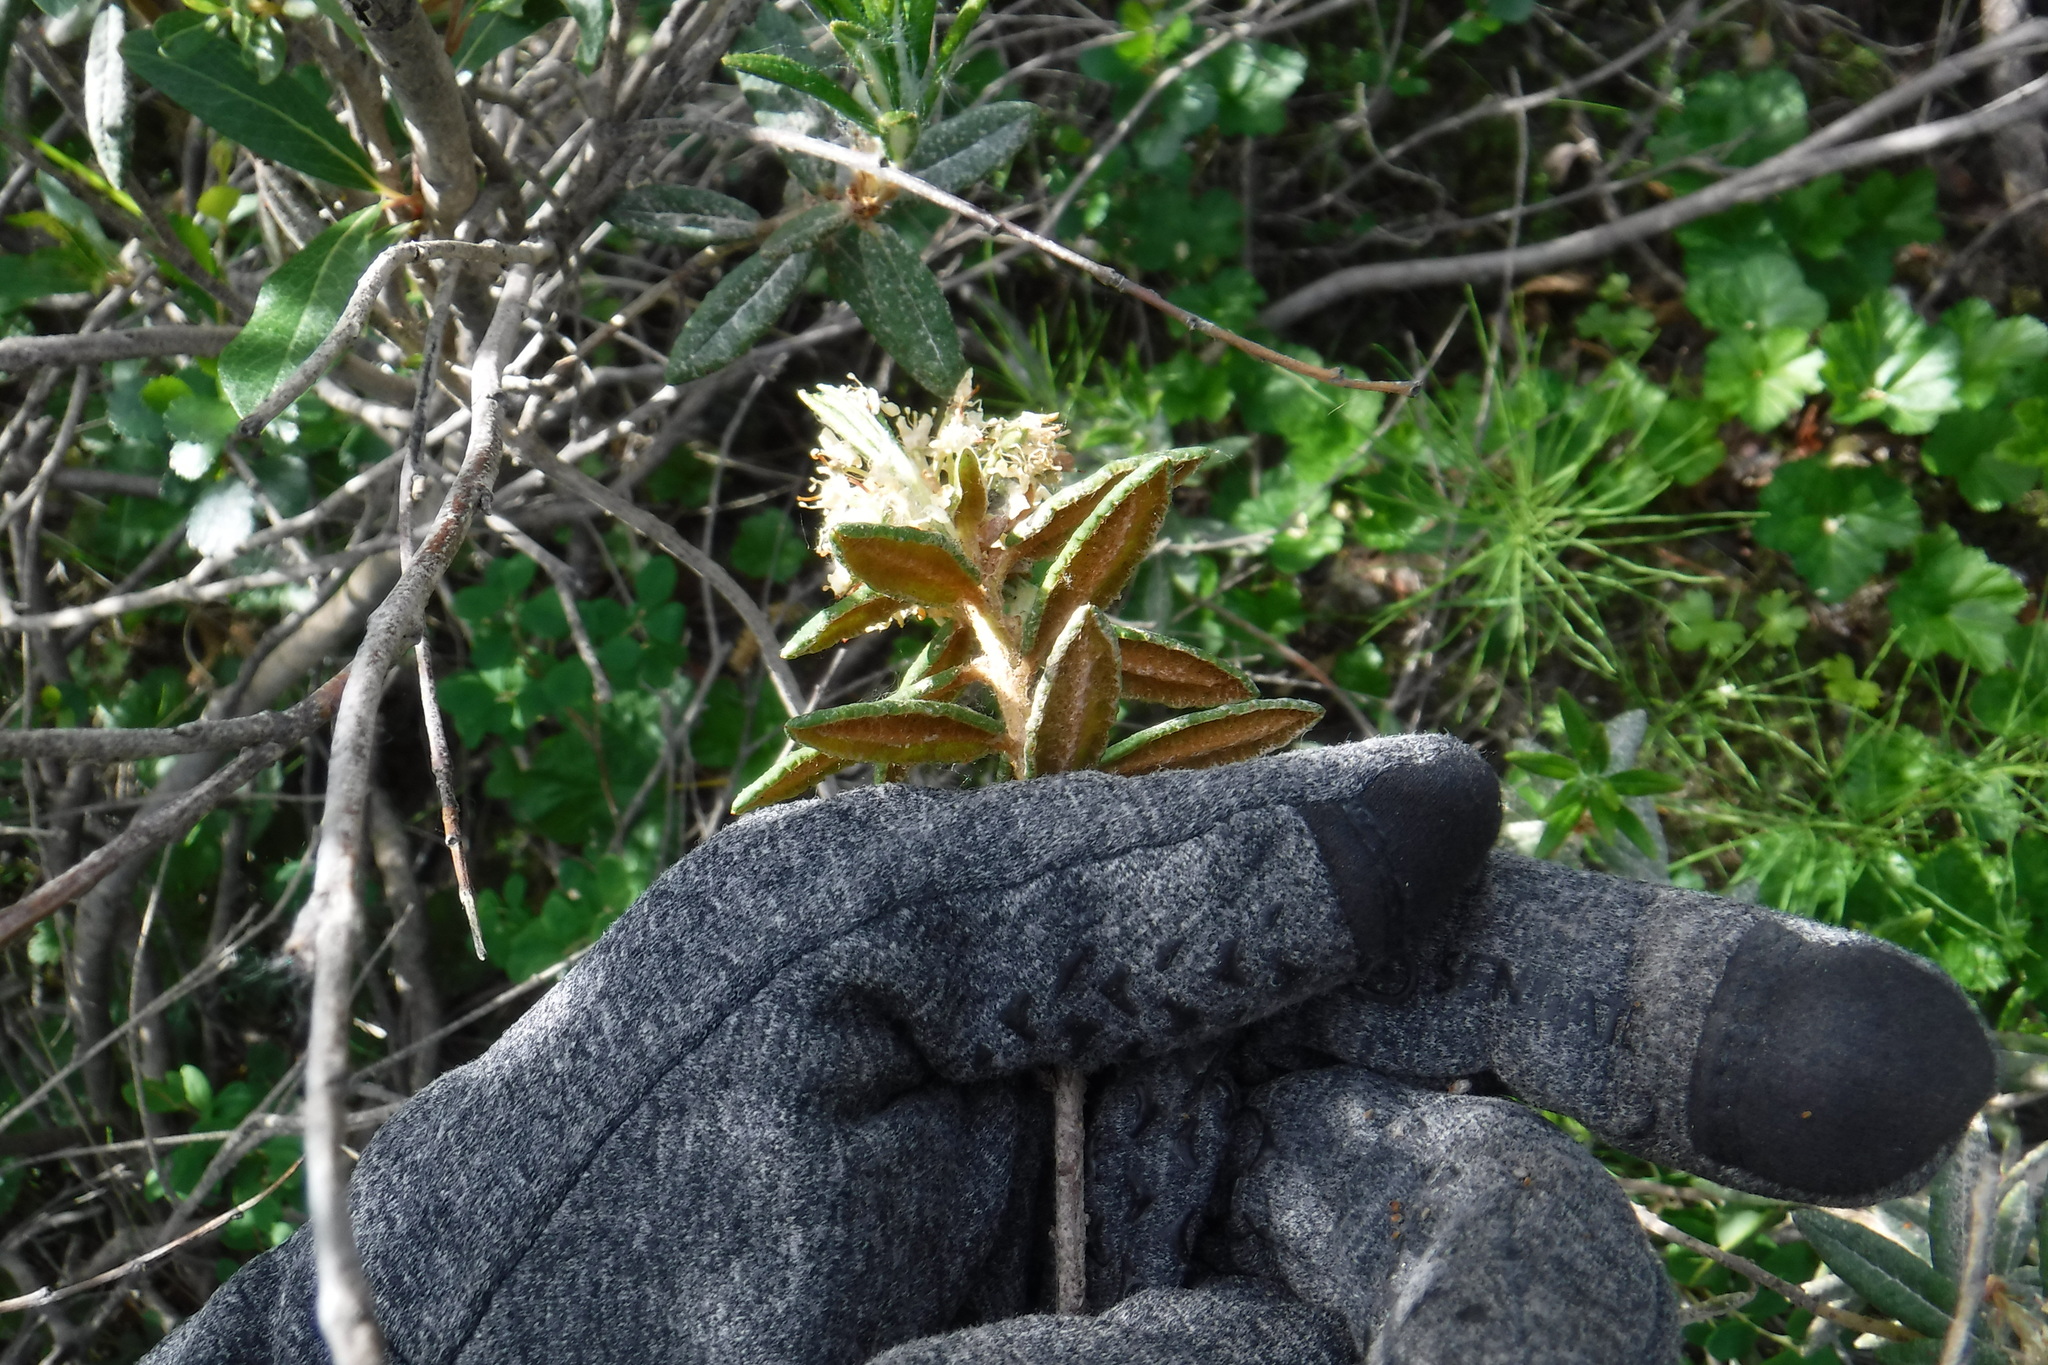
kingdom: Plantae
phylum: Tracheophyta
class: Magnoliopsida
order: Ericales
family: Ericaceae
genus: Rhododendron
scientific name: Rhododendron groenlandicum
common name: Bog labrador tea
